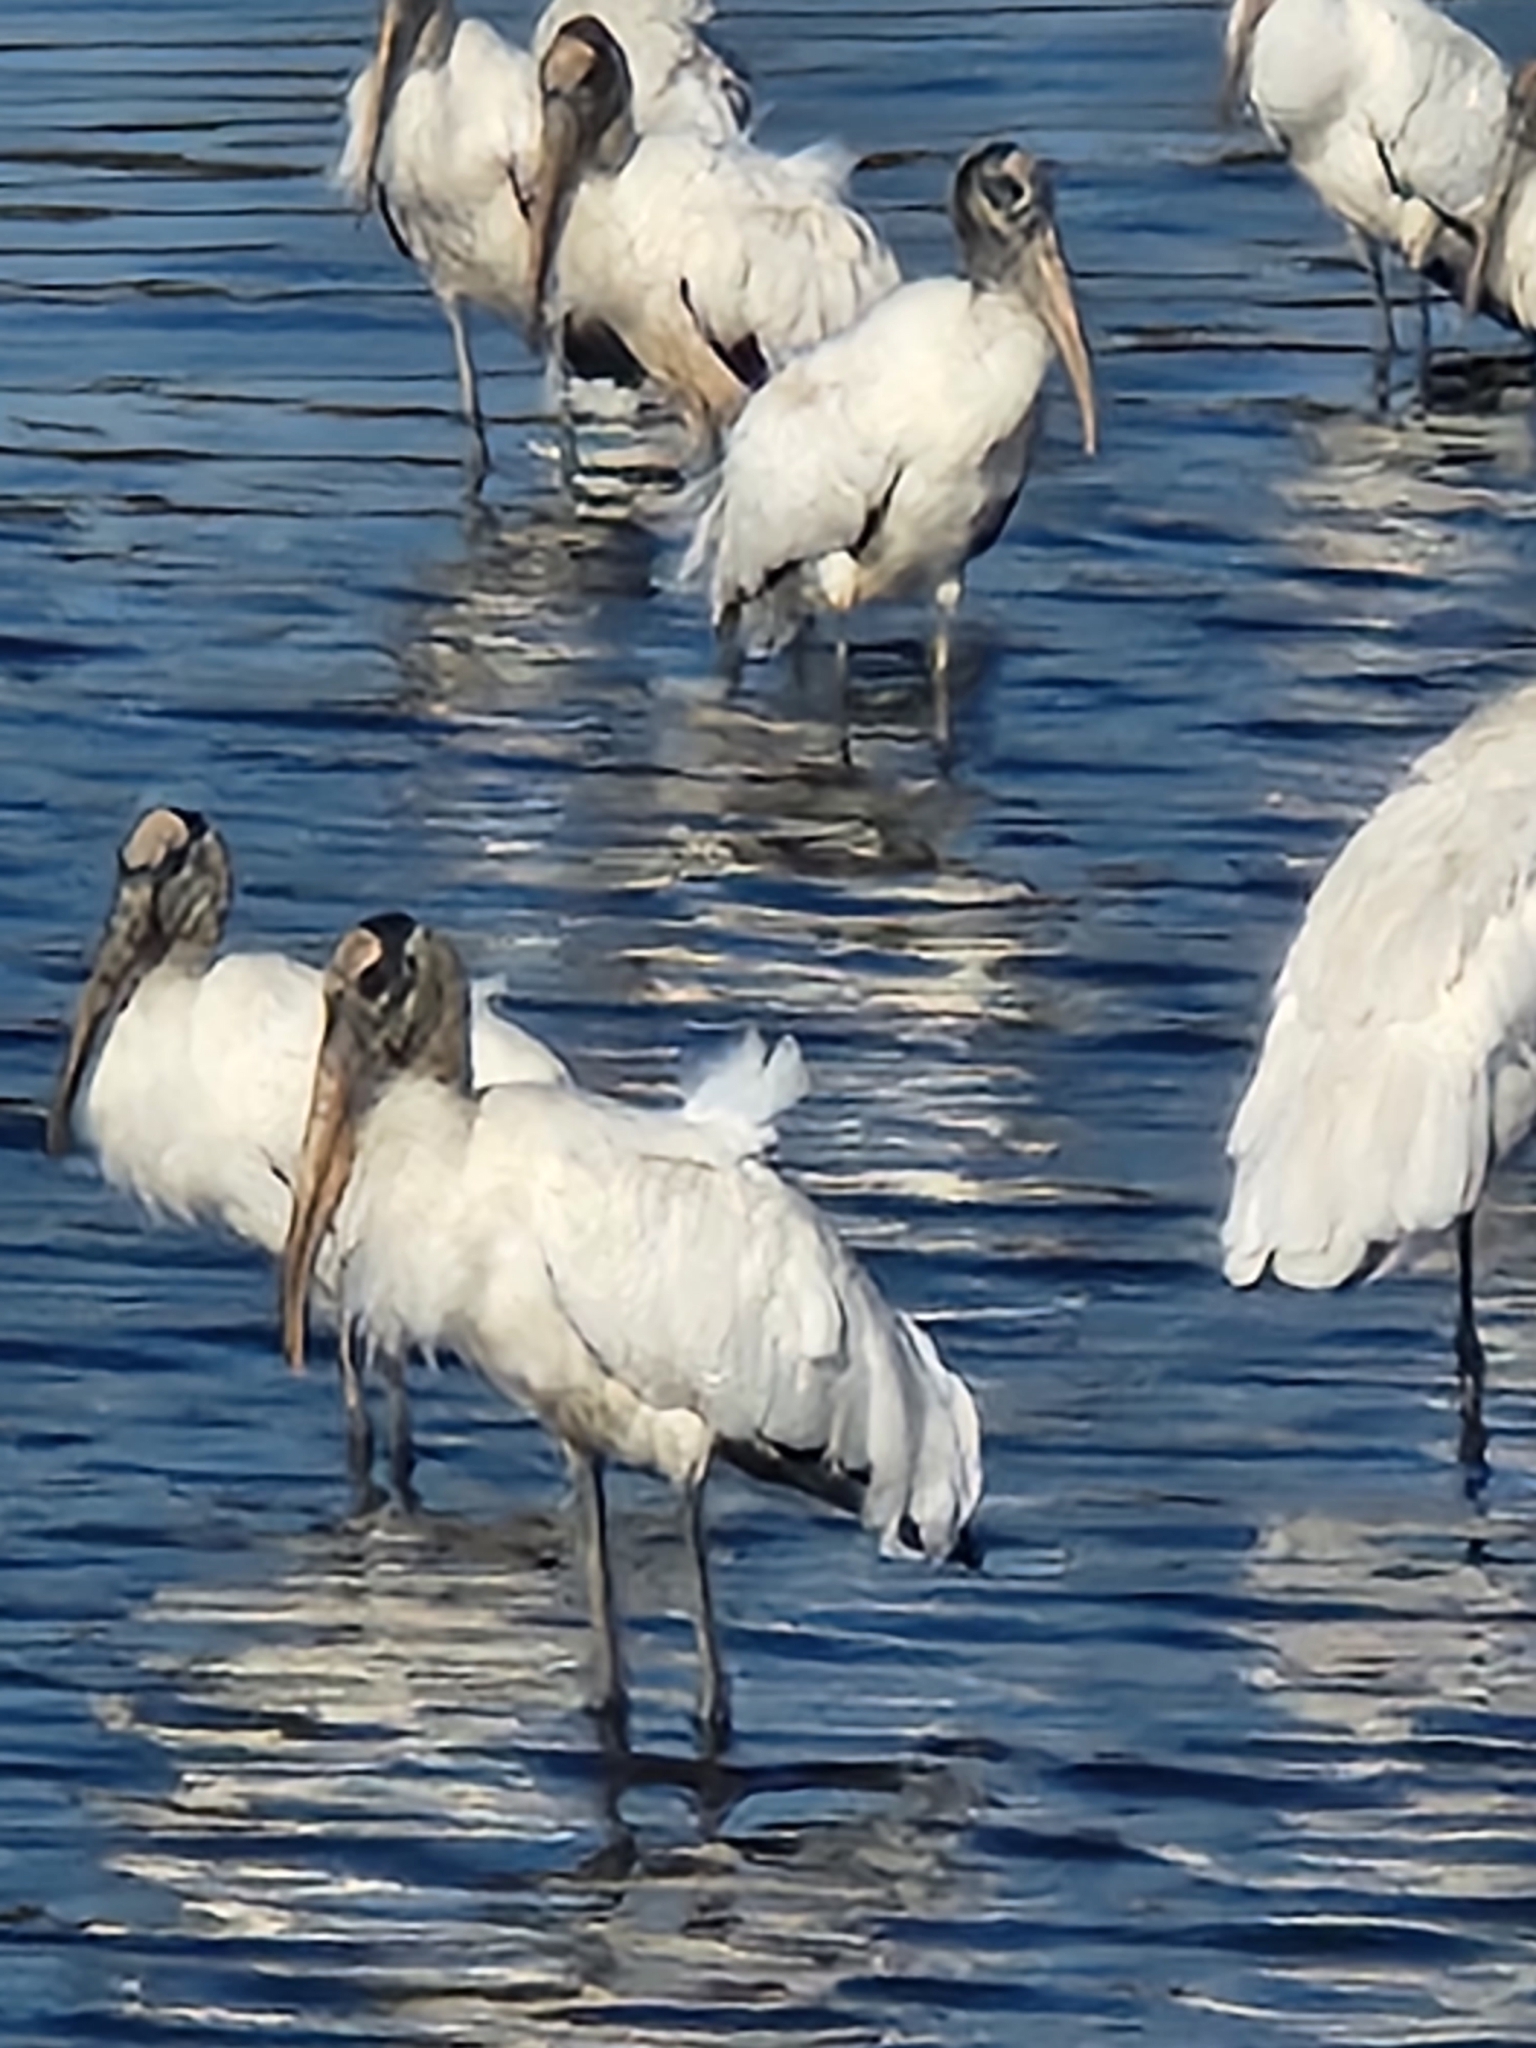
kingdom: Animalia
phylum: Chordata
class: Aves
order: Ciconiiformes
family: Ciconiidae
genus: Mycteria
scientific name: Mycteria americana
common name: Wood stork
